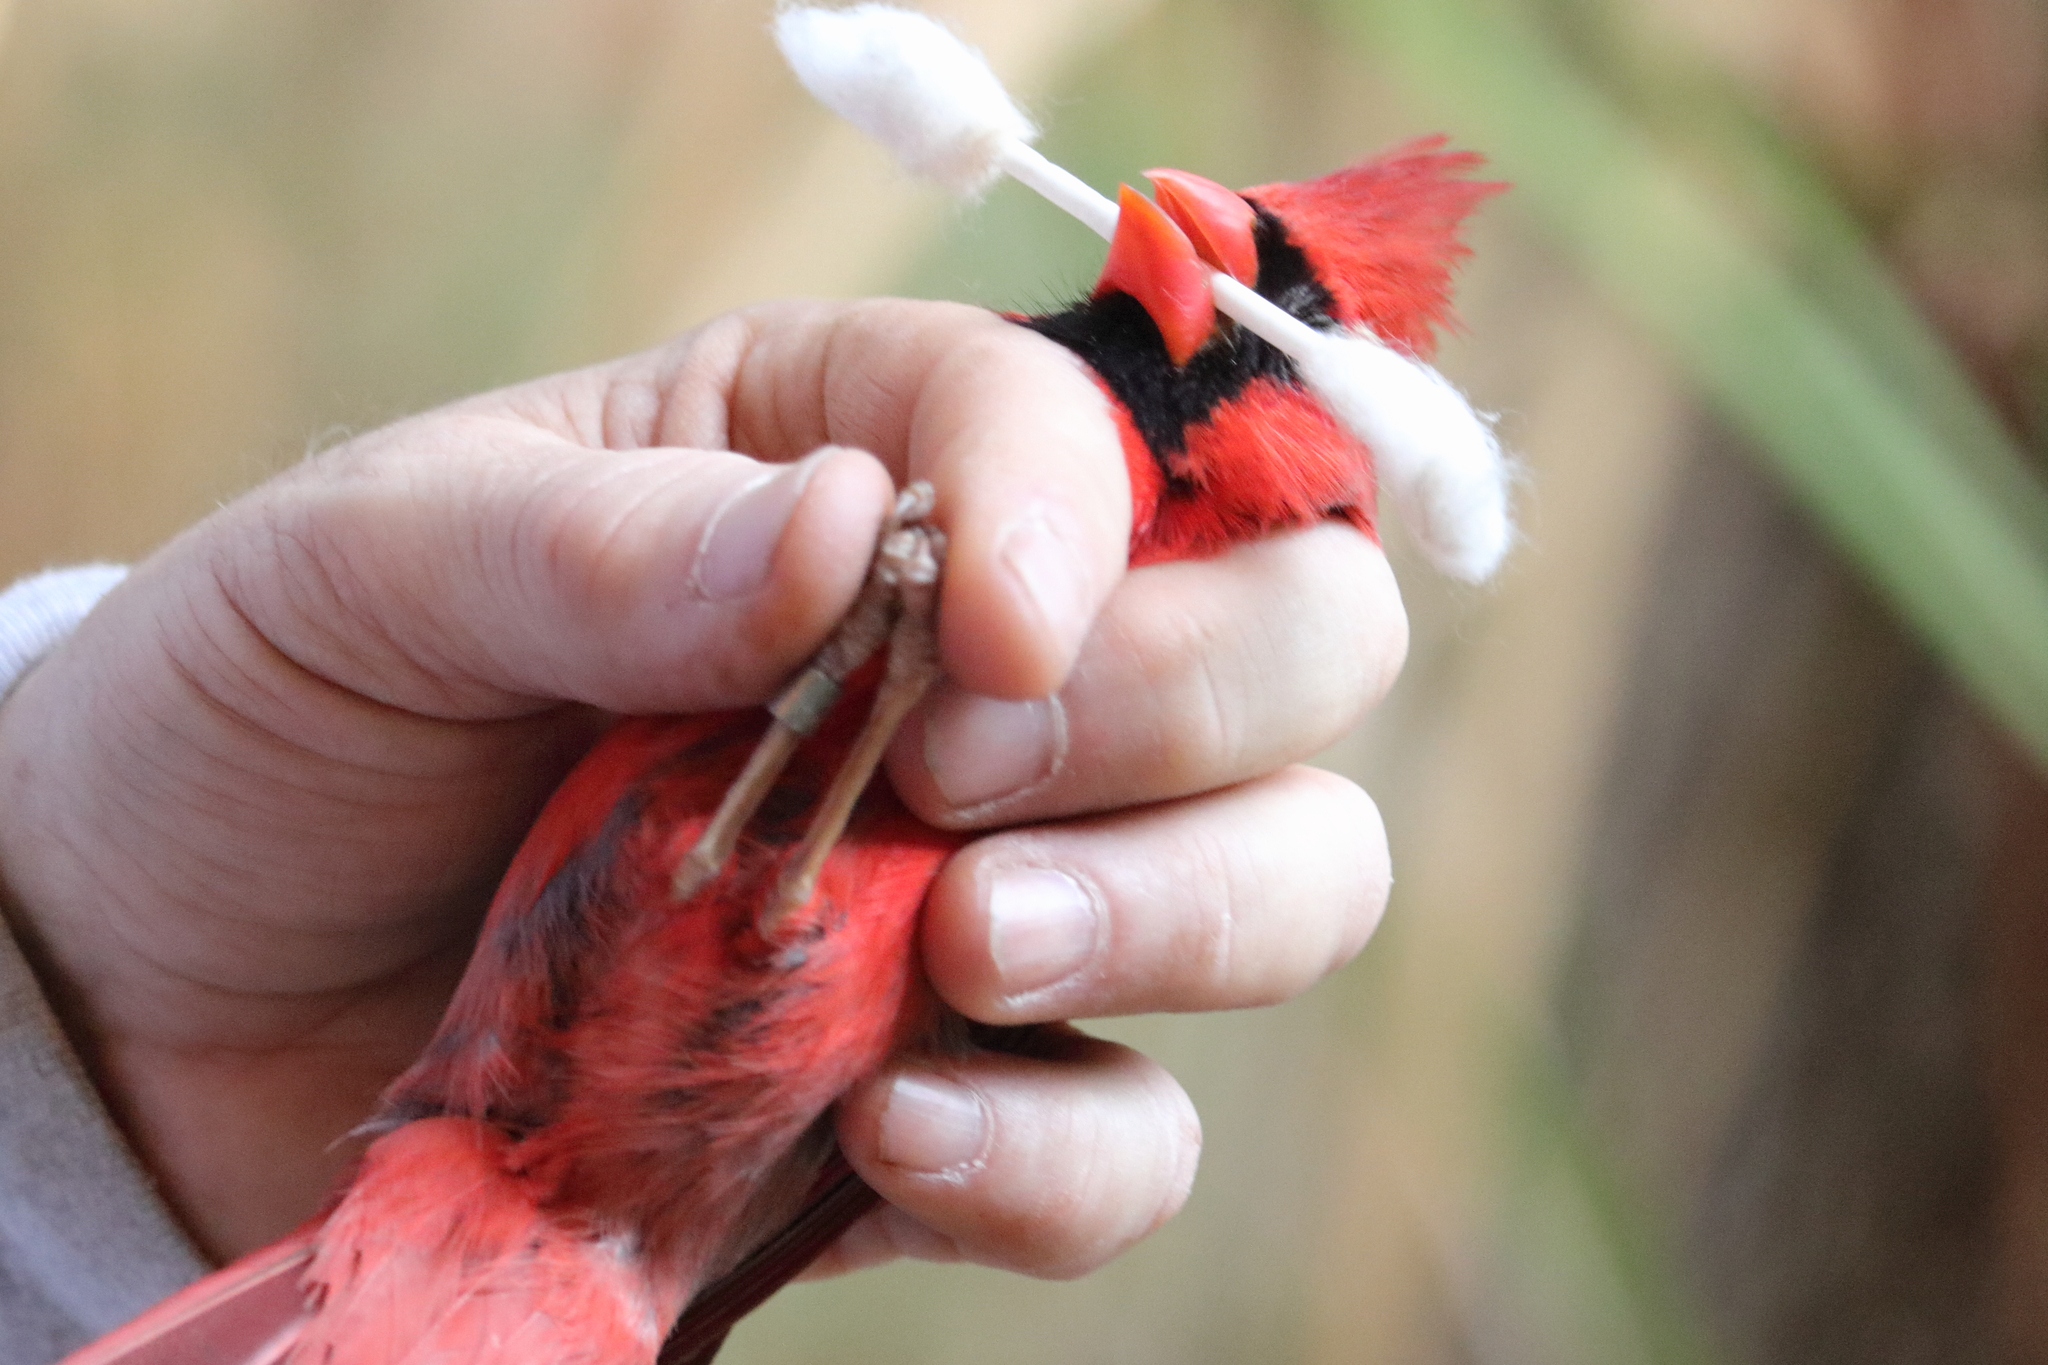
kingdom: Animalia
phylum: Chordata
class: Aves
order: Passeriformes
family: Cardinalidae
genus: Cardinalis
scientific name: Cardinalis cardinalis
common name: Northern cardinal
